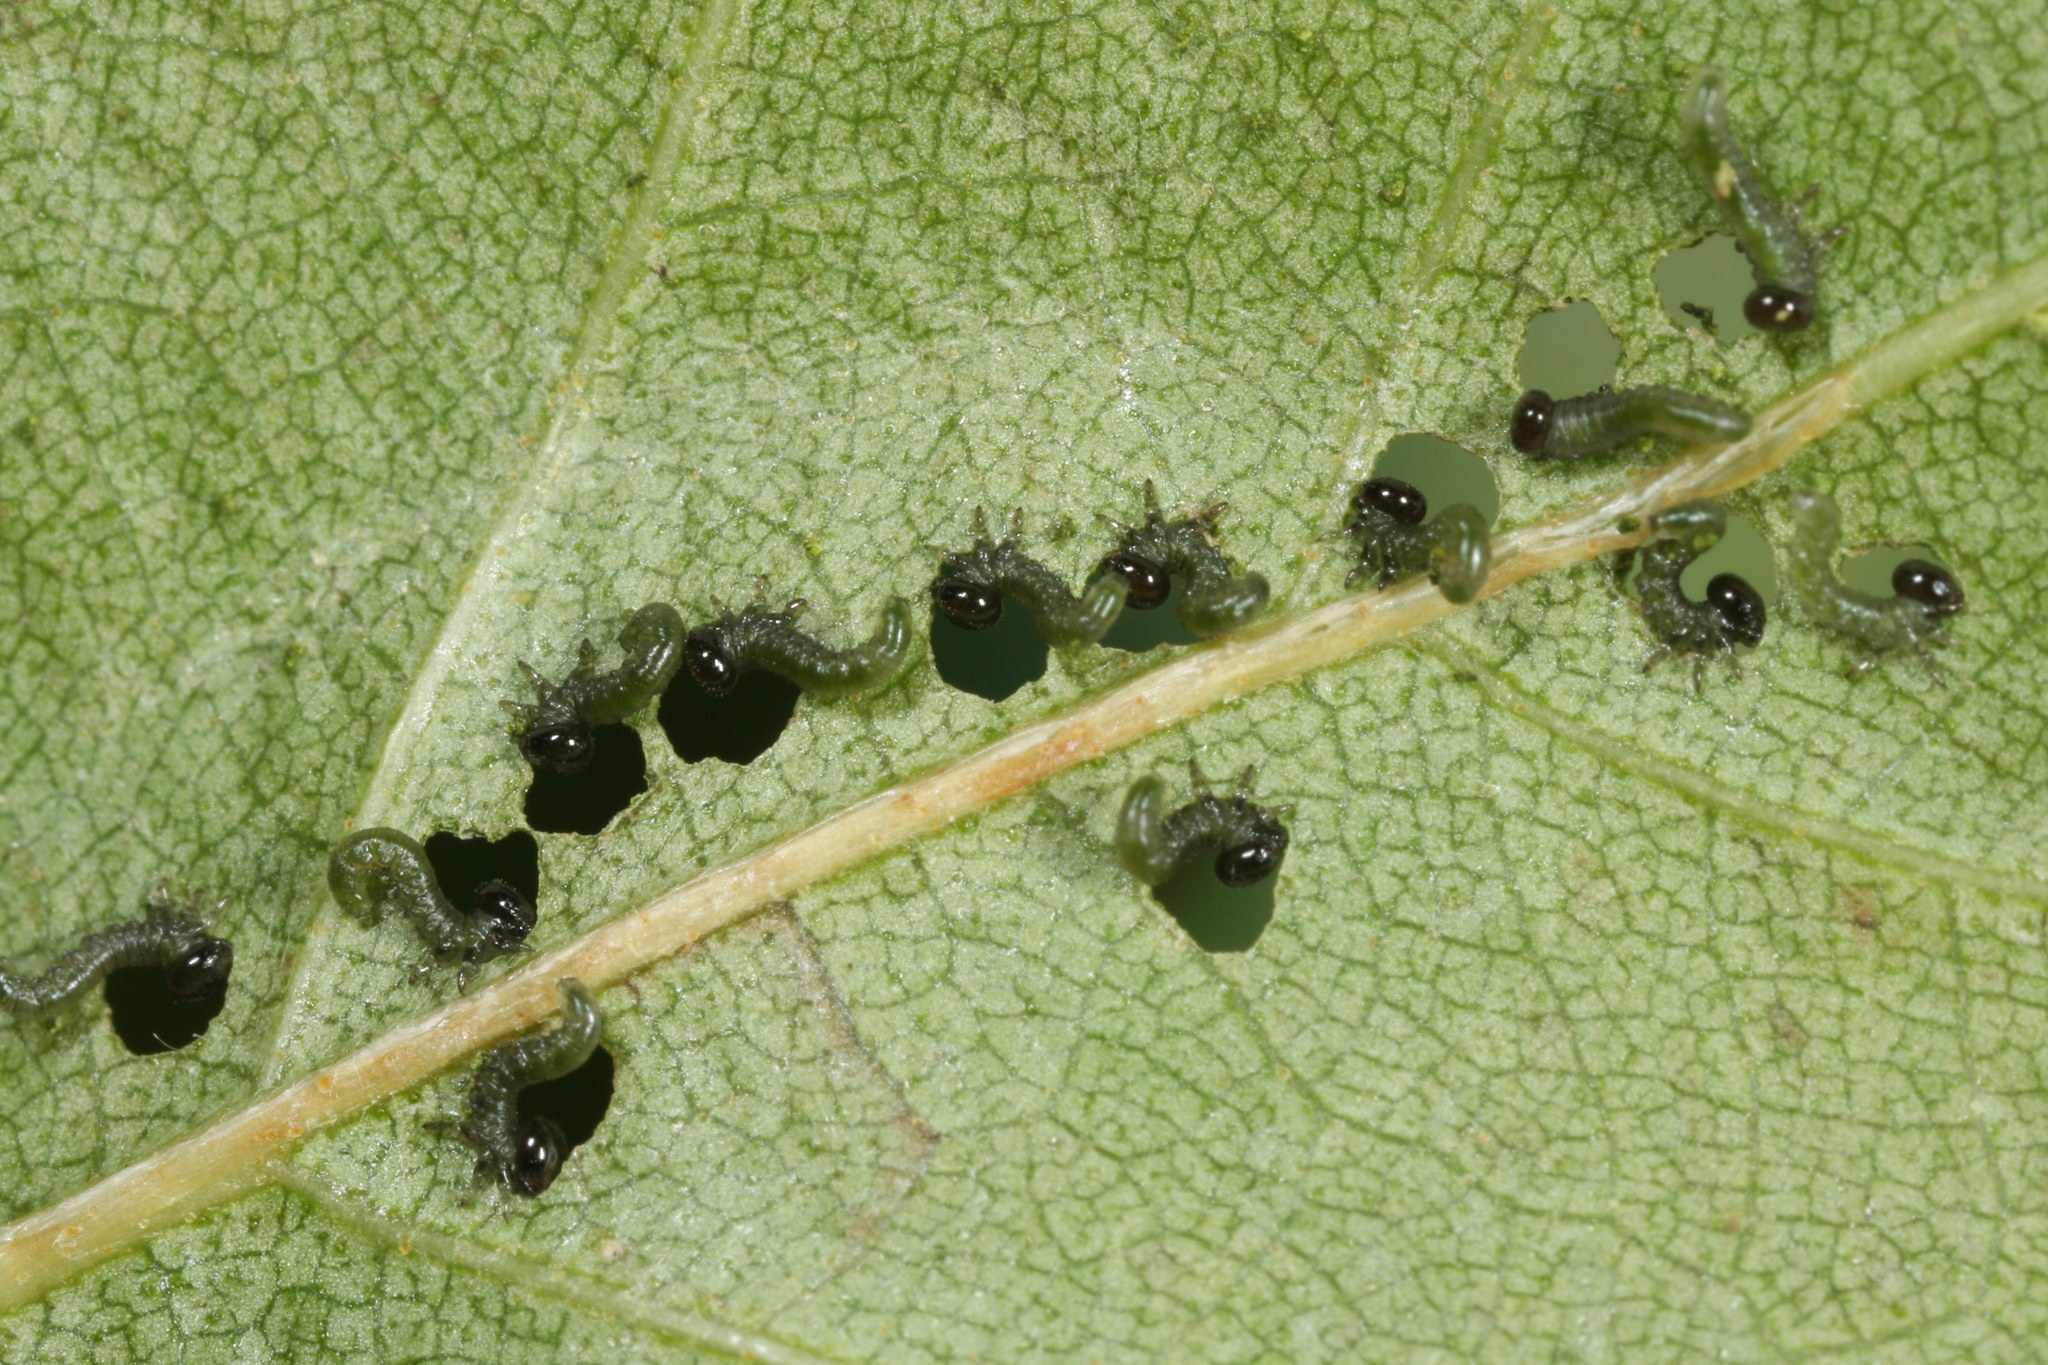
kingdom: Animalia
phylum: Arthropoda
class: Insecta
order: Hymenoptera
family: Tenthredinidae
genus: Craesus
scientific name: Craesus septentrionalis
